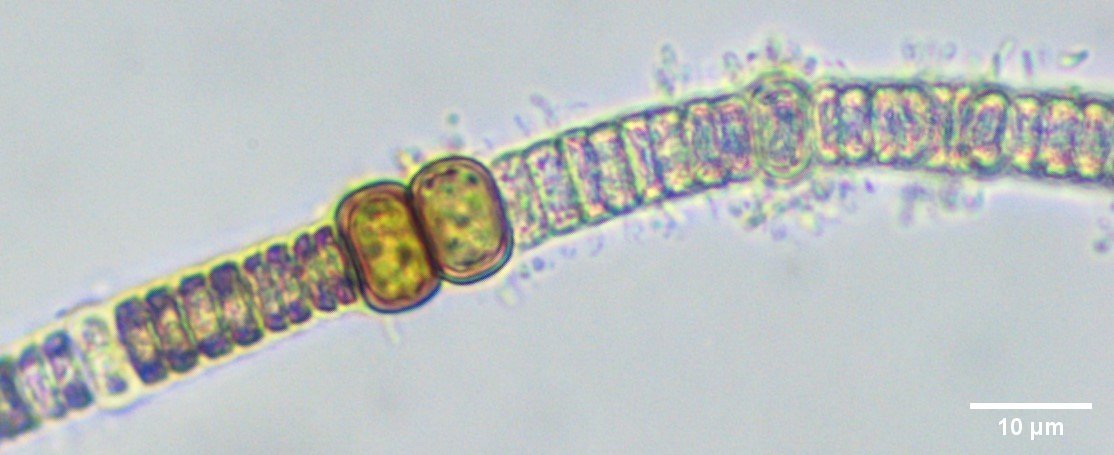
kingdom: Bacteria
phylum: Cyanobacteria
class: Cyanobacteriia
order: Cyanobacteriales
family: Nostocaceae
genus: Nodularia
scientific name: Nodularia spumigena
